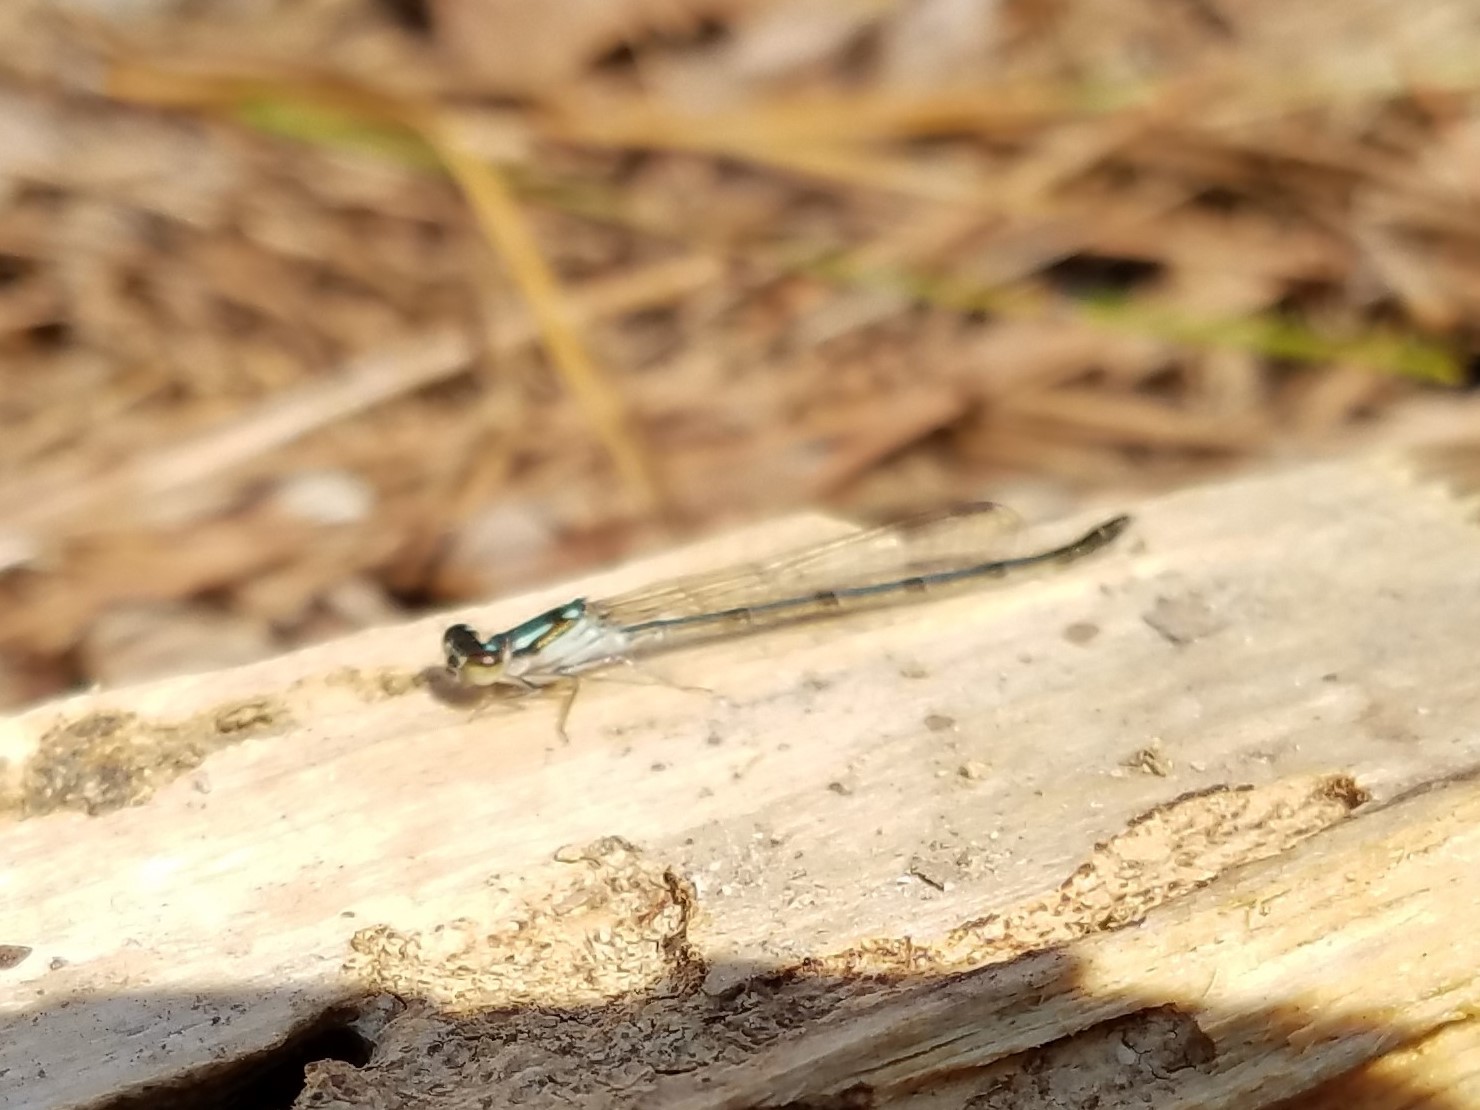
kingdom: Animalia
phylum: Arthropoda
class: Insecta
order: Odonata
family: Coenagrionidae
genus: Ischnura
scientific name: Ischnura posita
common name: Fragile forktail
